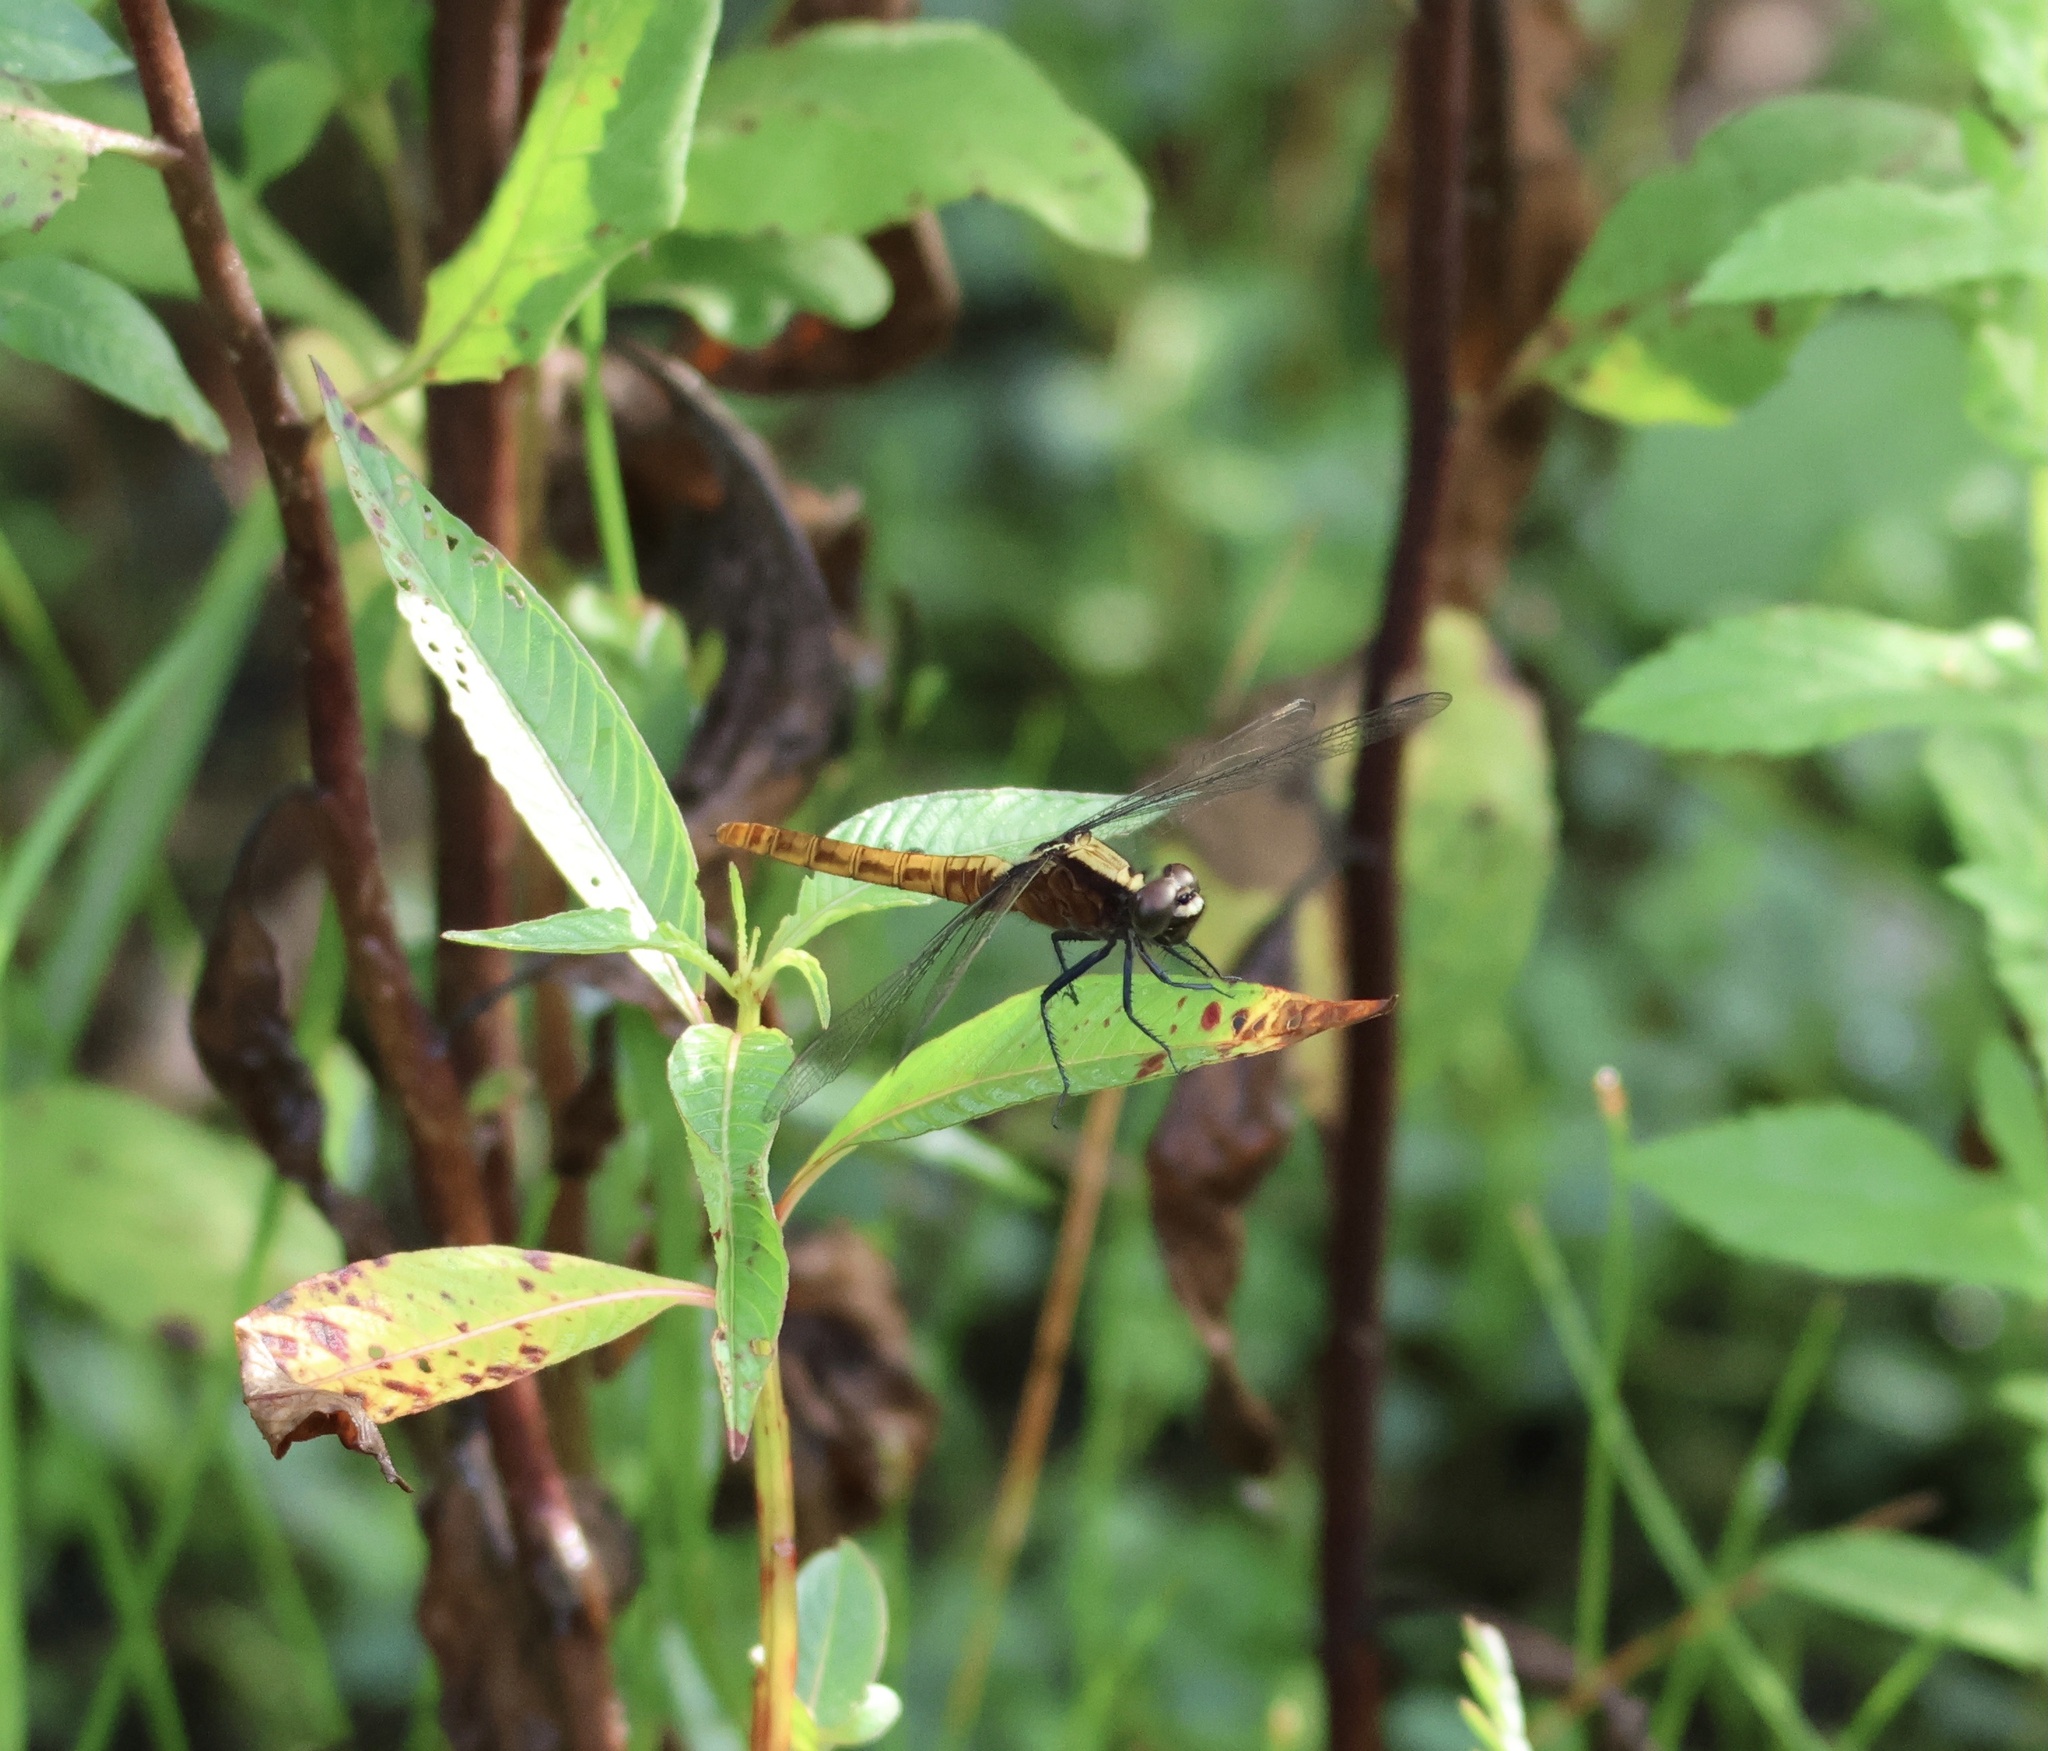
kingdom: Animalia
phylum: Arthropoda
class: Insecta
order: Odonata
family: Libellulidae
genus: Erythemis
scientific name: Erythemis peruviana
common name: Flame-tailed pondhawk
